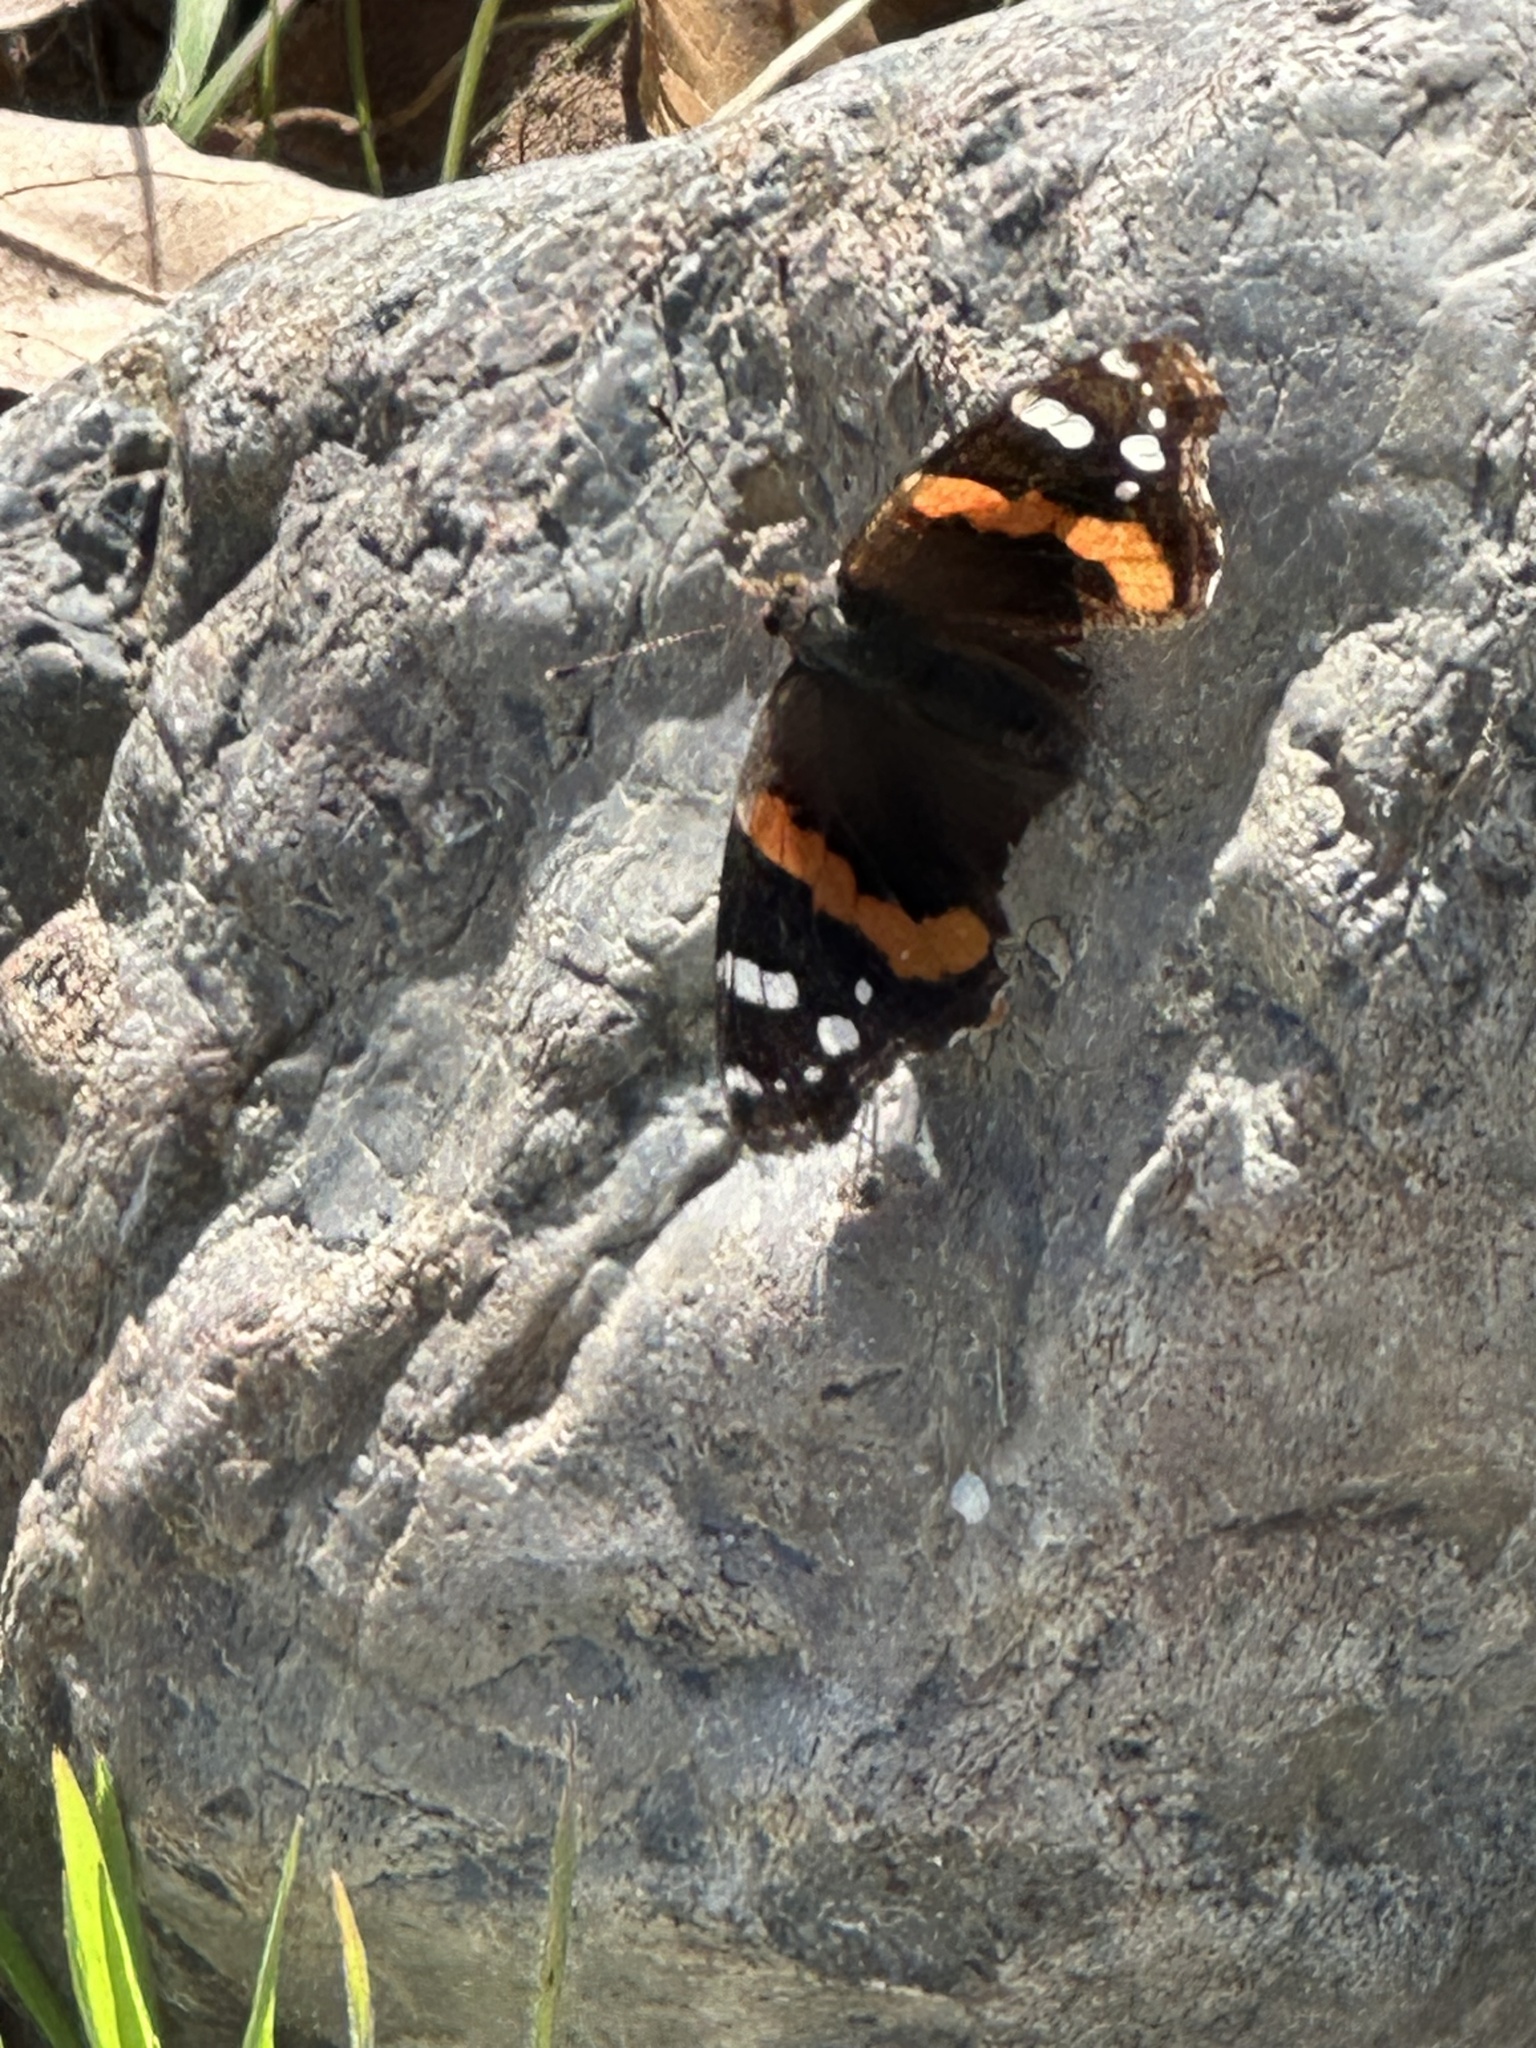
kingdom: Animalia
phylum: Arthropoda
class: Insecta
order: Lepidoptera
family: Nymphalidae
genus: Vanessa
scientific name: Vanessa atalanta
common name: Red admiral
